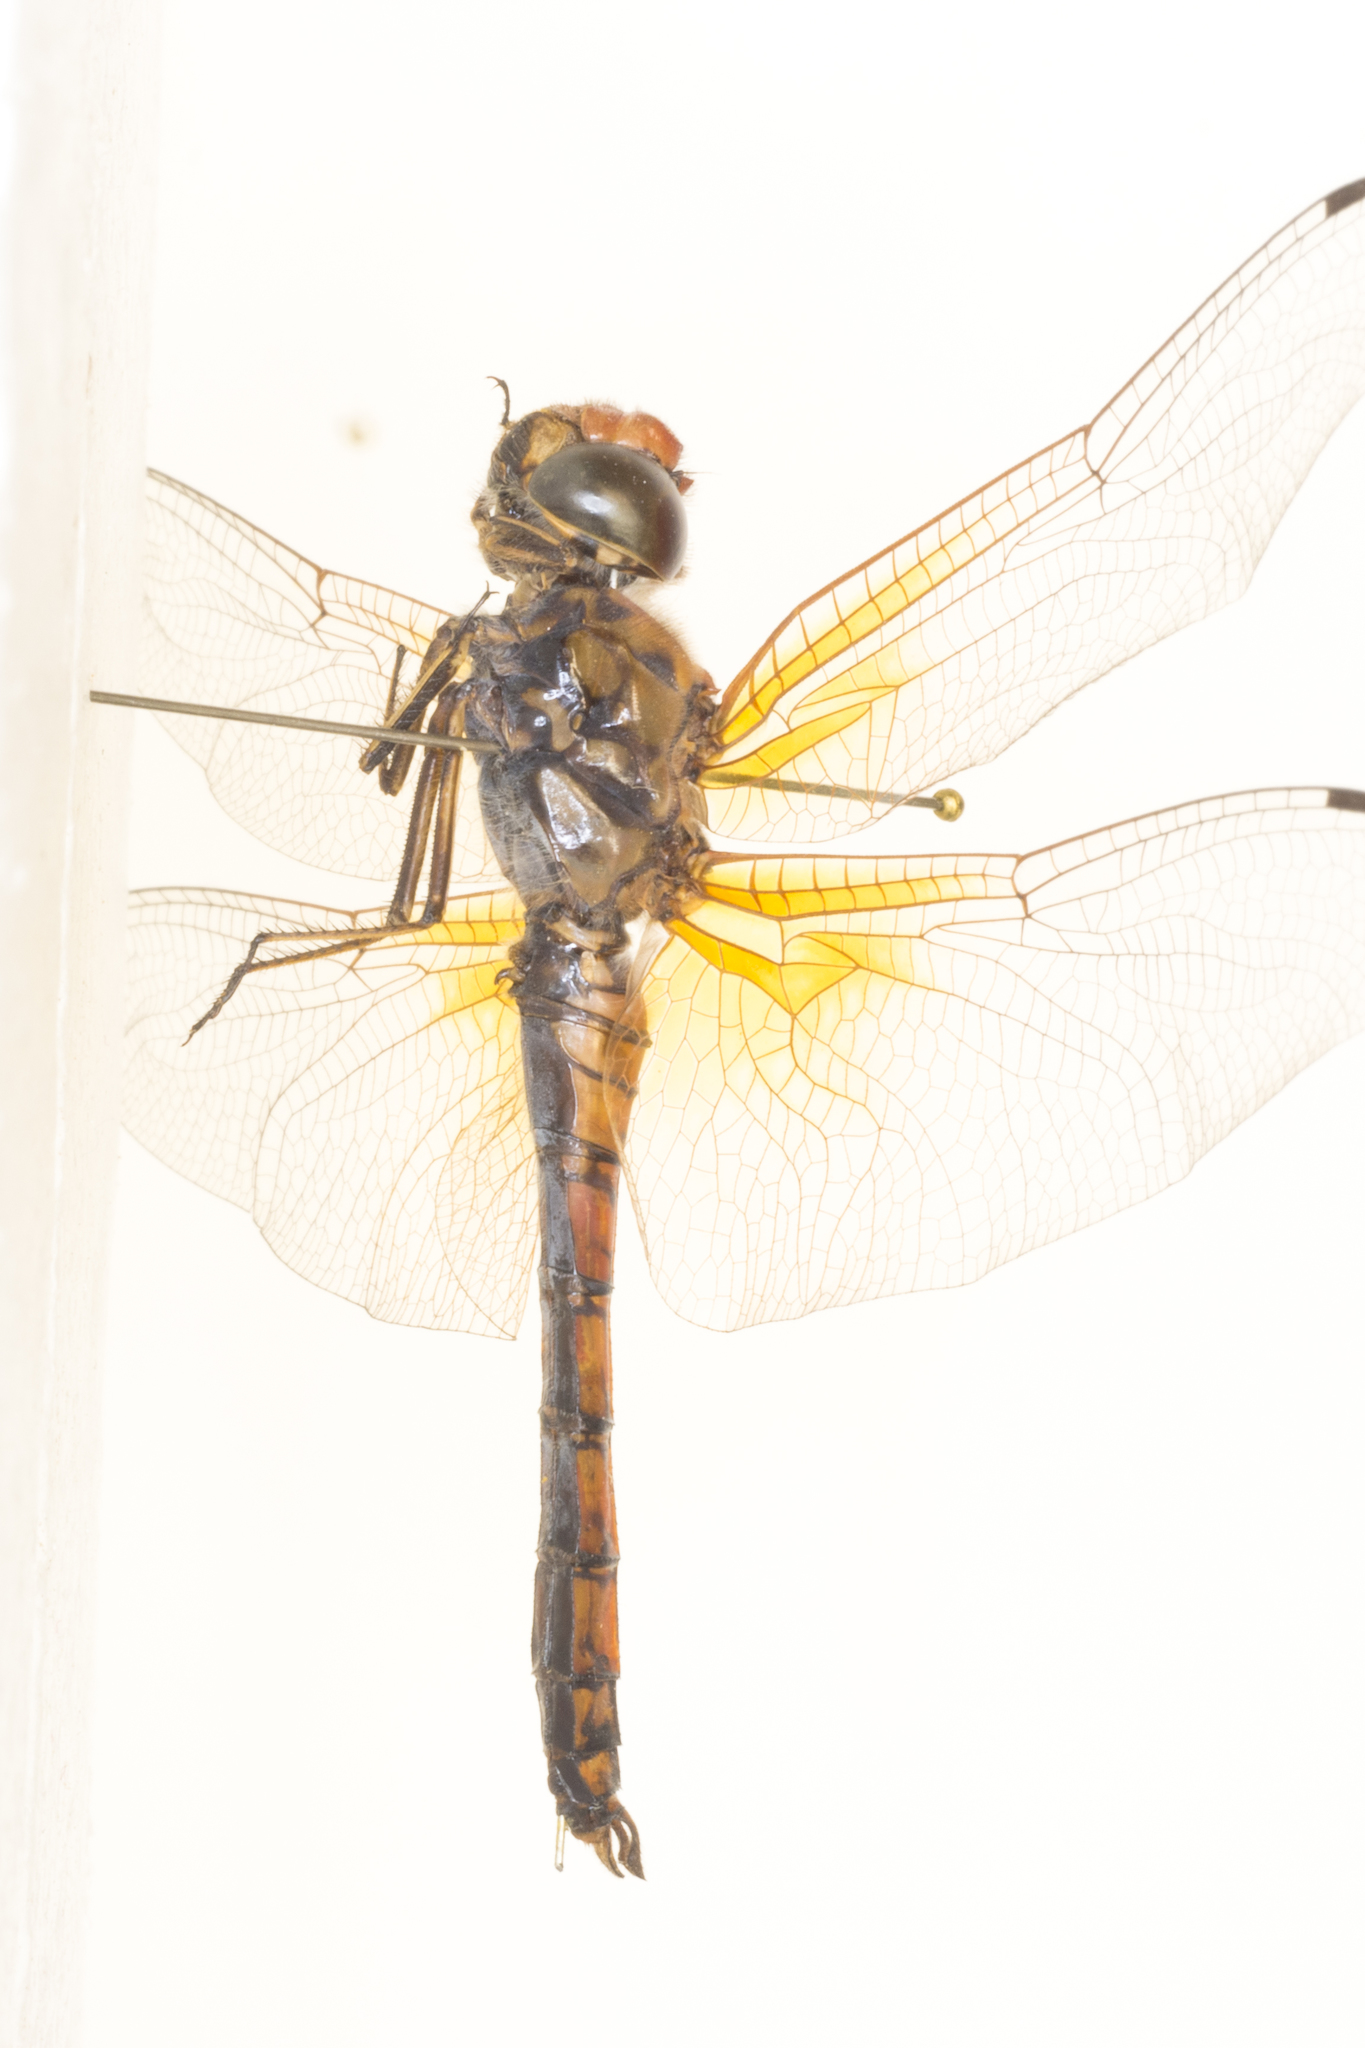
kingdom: Animalia
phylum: Arthropoda
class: Insecta
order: Odonata
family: Libellulidae
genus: Paltothemis
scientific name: Paltothemis lineatipes
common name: Red rock skimmer
